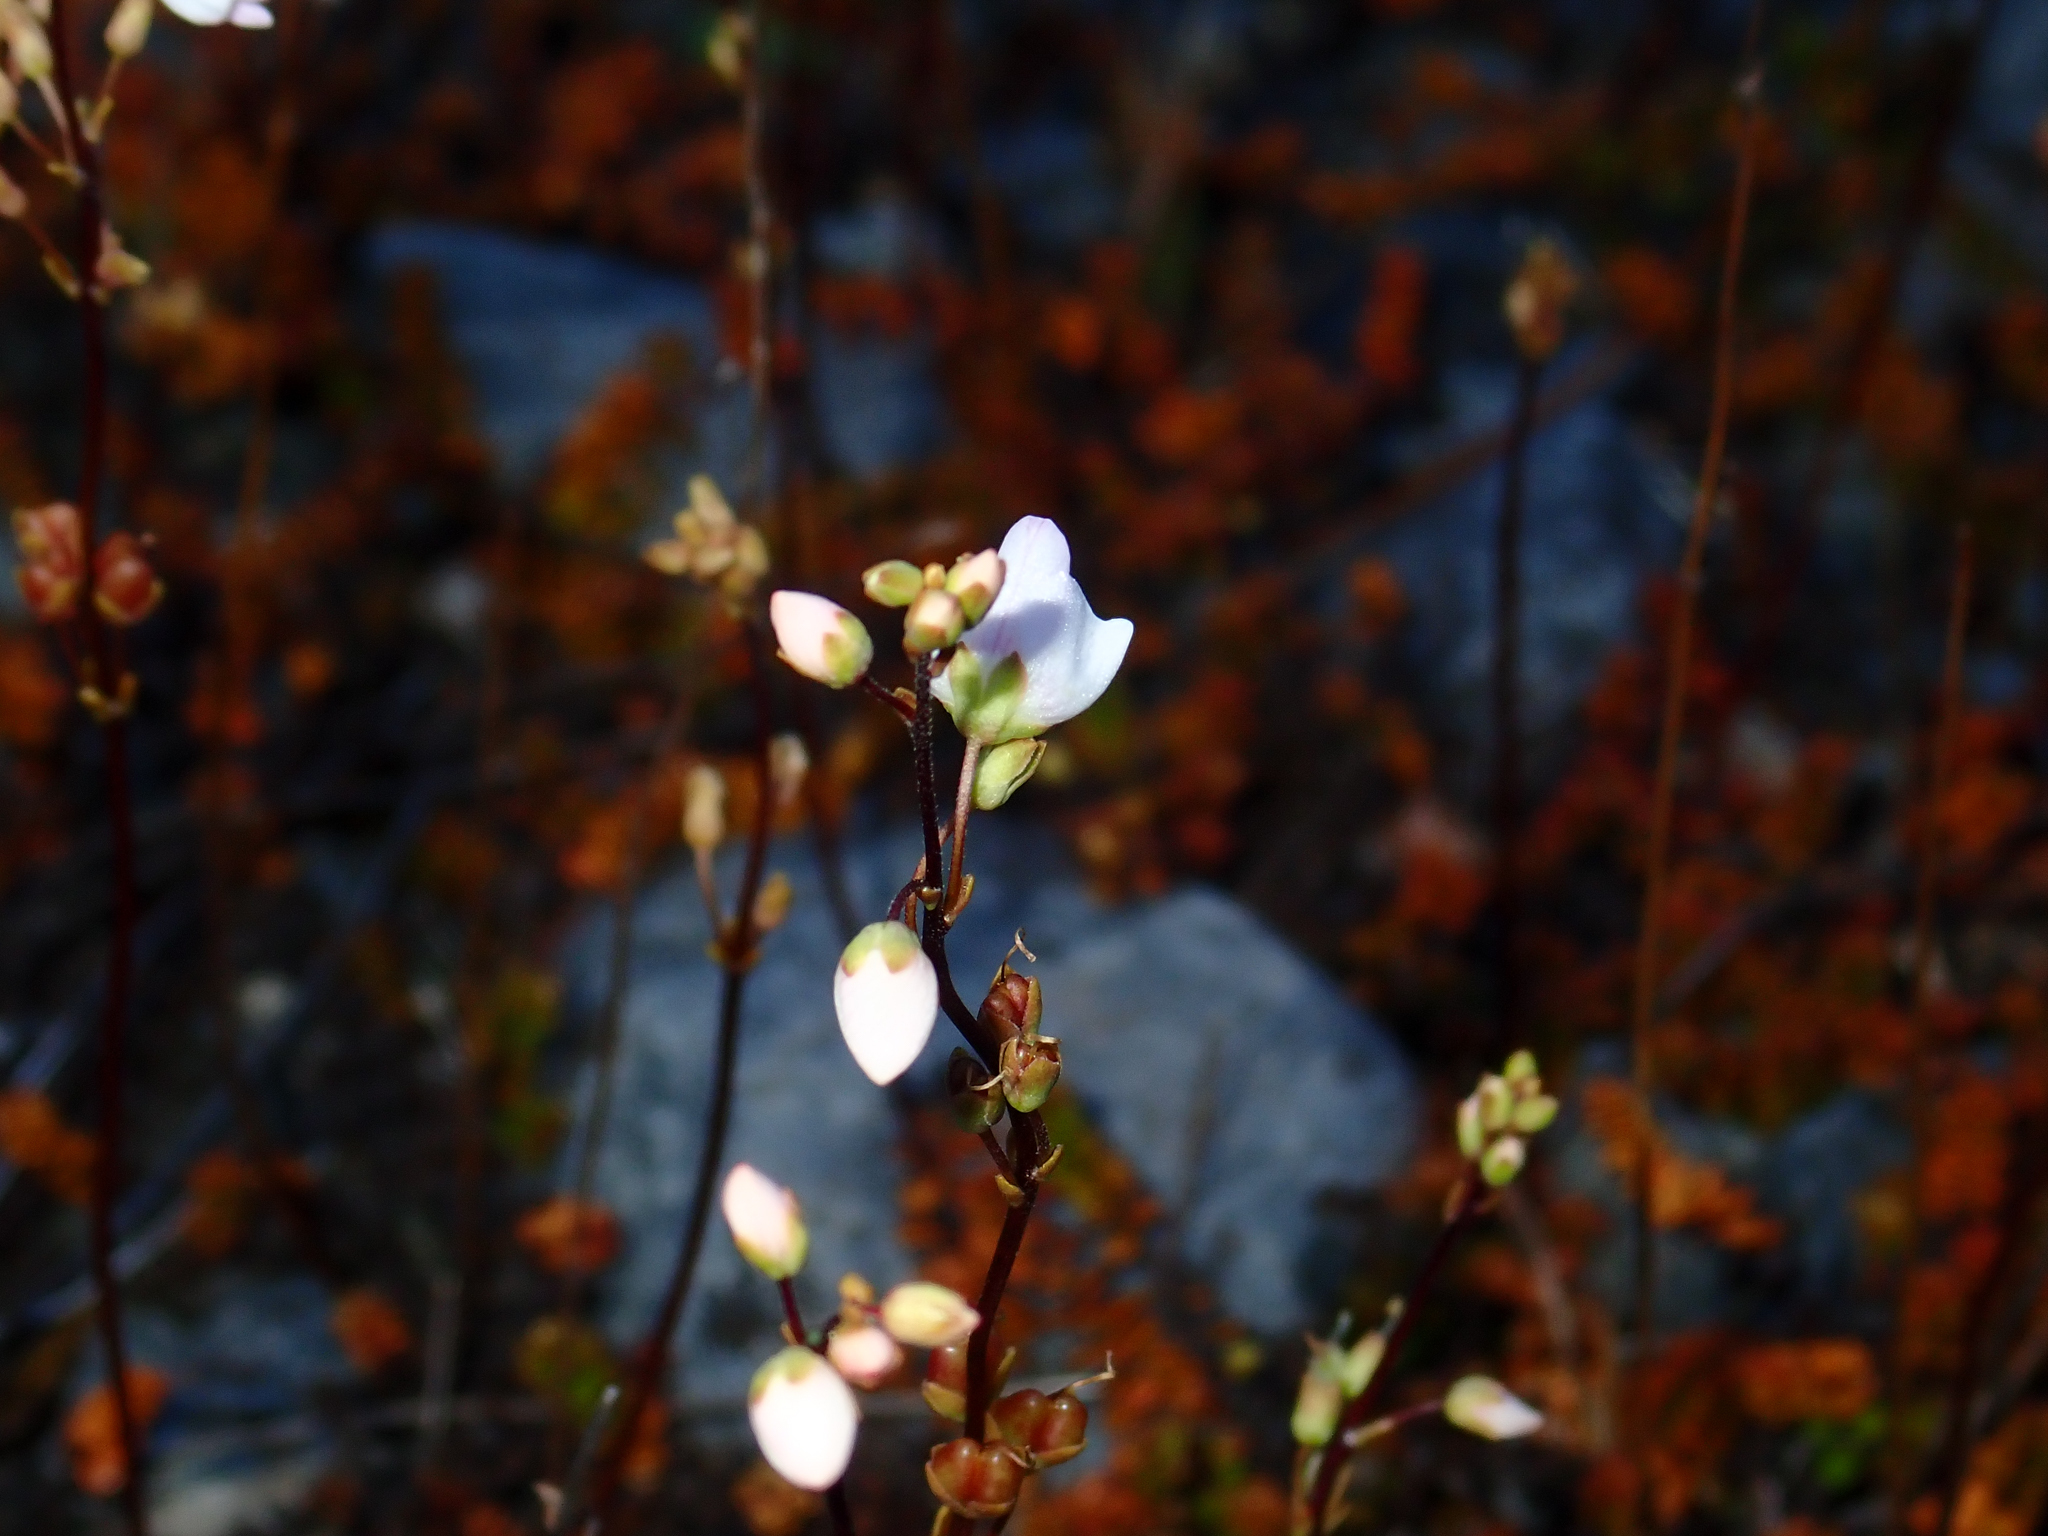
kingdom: Plantae
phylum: Tracheophyta
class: Magnoliopsida
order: Lamiales
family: Plantaginaceae
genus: Veronica
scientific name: Veronica decora
